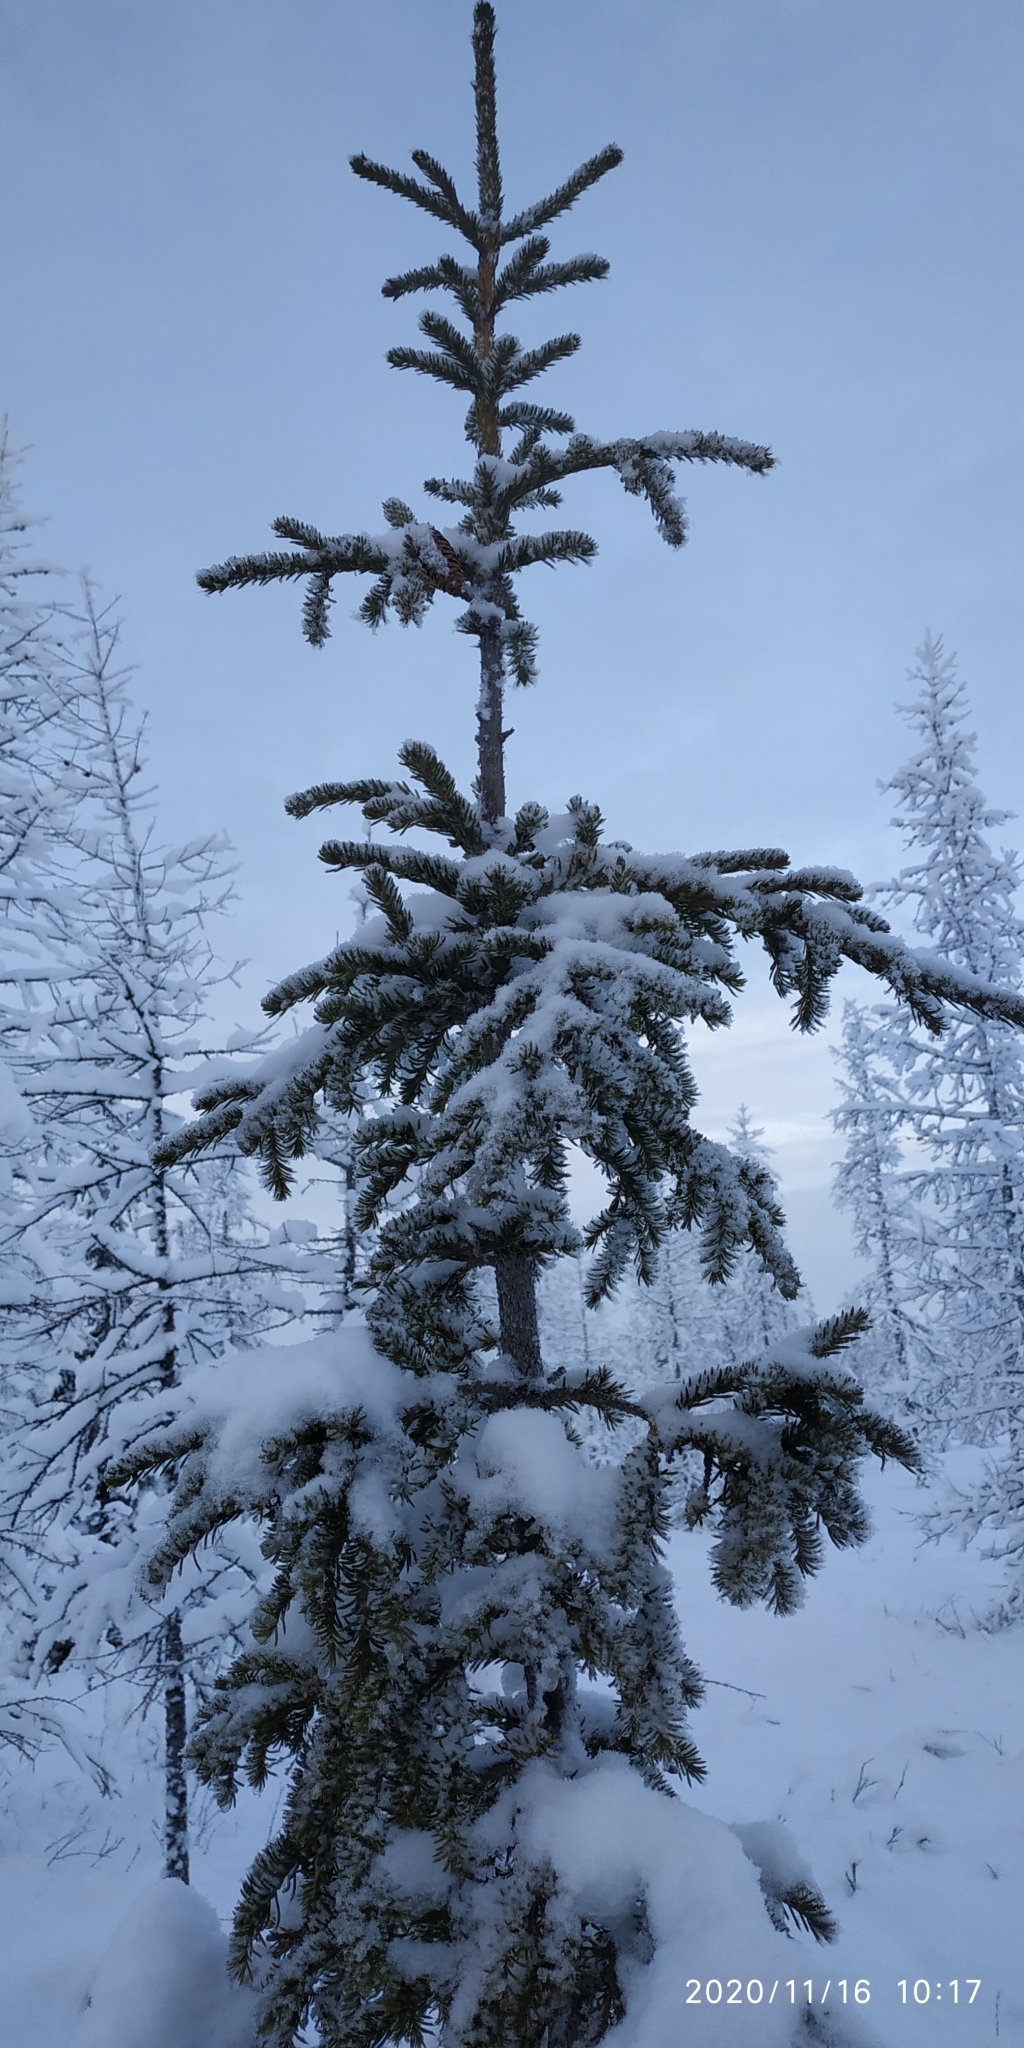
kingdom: Plantae
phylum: Tracheophyta
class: Pinopsida
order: Pinales
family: Pinaceae
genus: Picea
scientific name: Picea obovata
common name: Siberian spruce
